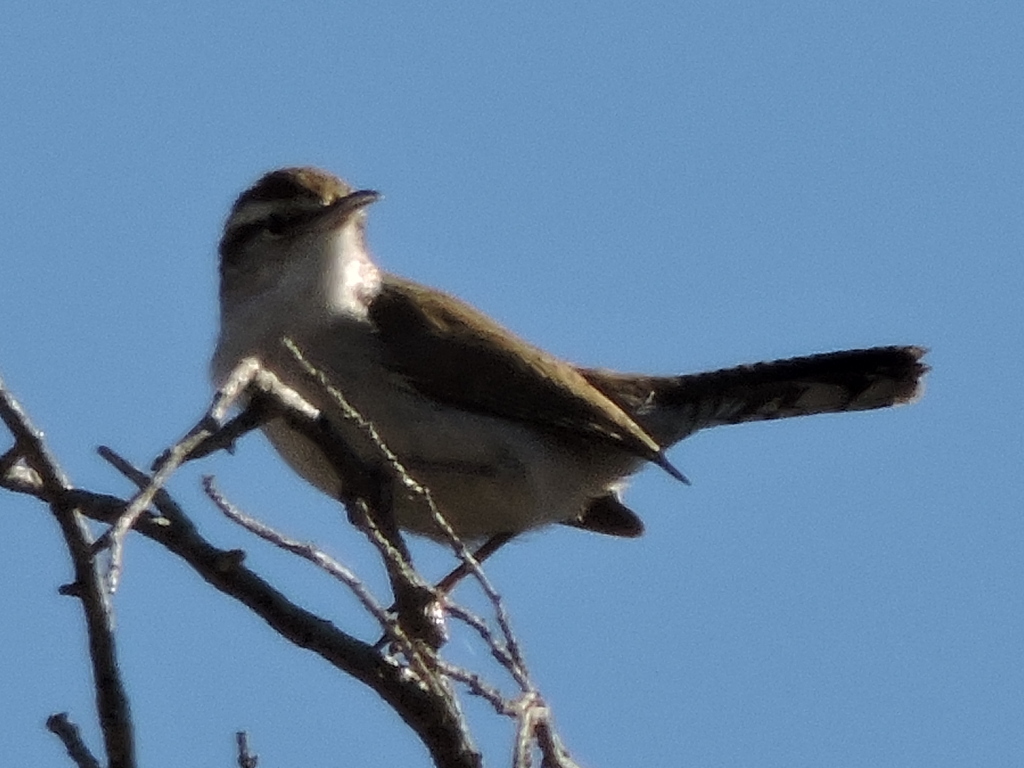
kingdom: Animalia
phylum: Chordata
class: Aves
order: Passeriformes
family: Troglodytidae
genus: Thryomanes
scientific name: Thryomanes bewickii
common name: Bewick's wren
